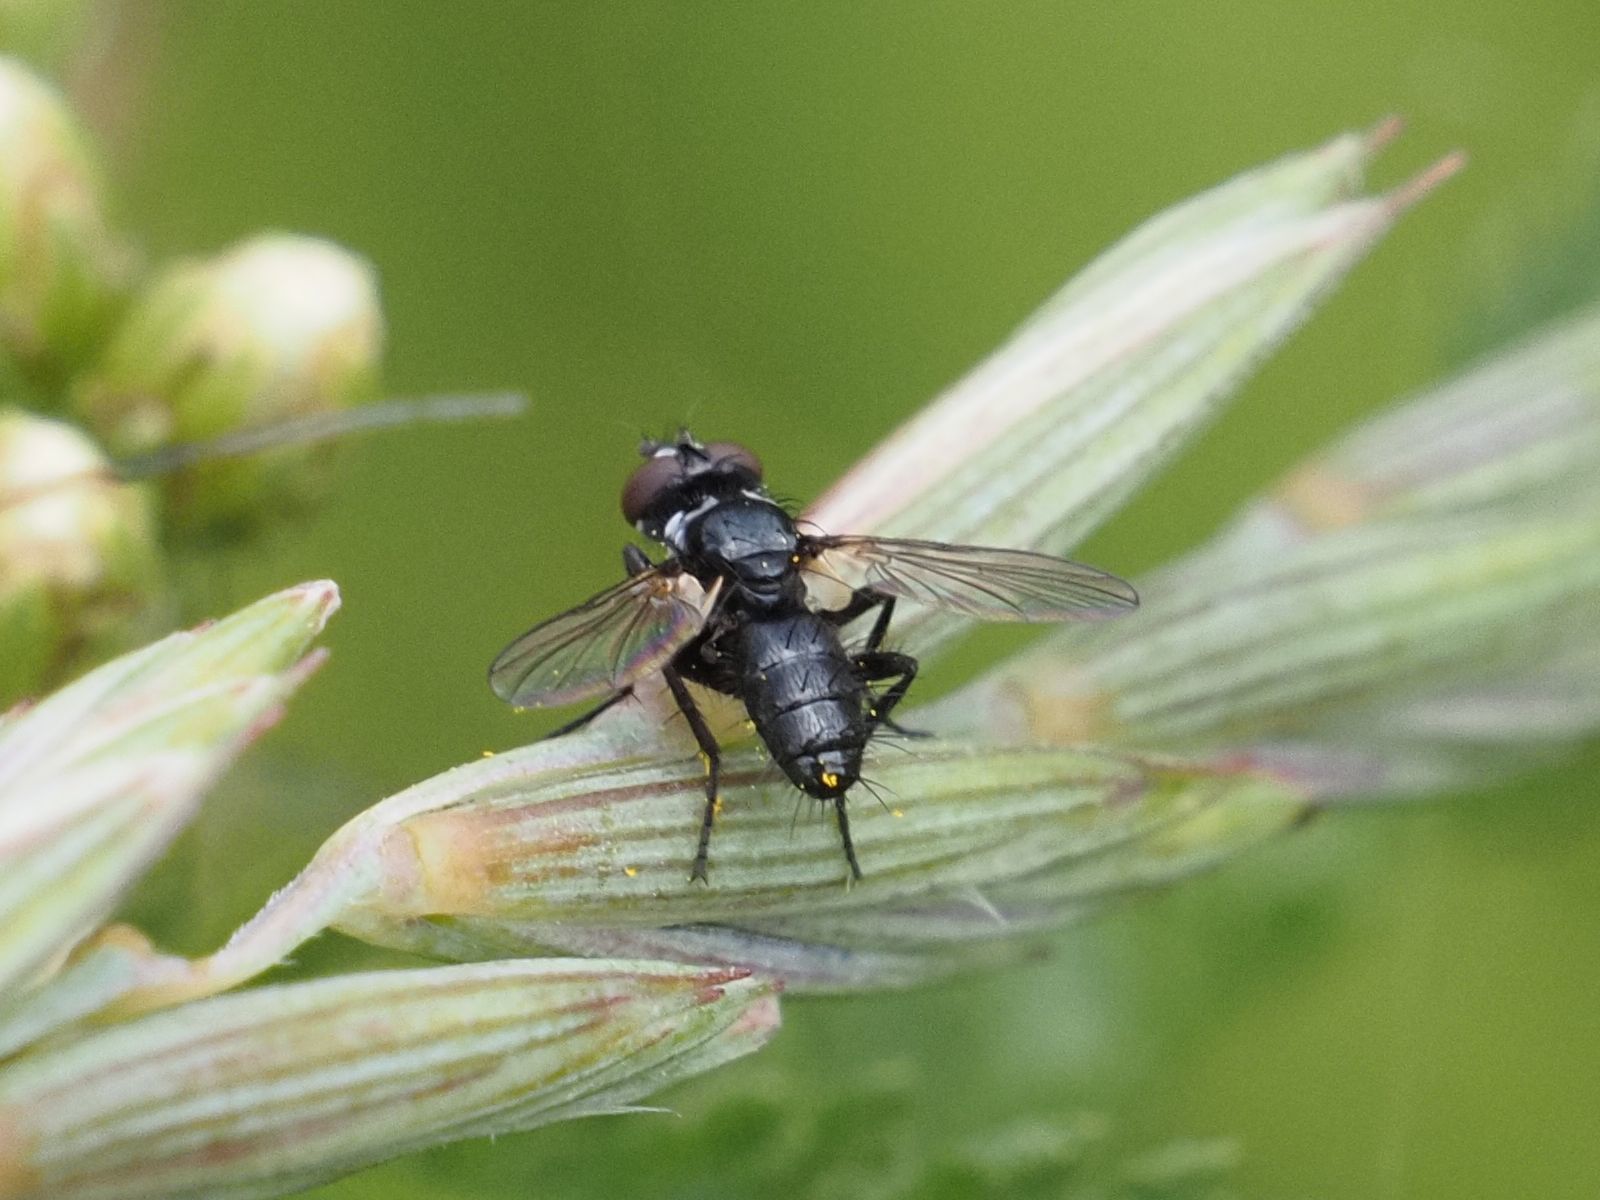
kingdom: Animalia
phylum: Arthropoda
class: Insecta
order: Diptera
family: Tachinidae
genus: Phania
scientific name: Phania funesta
